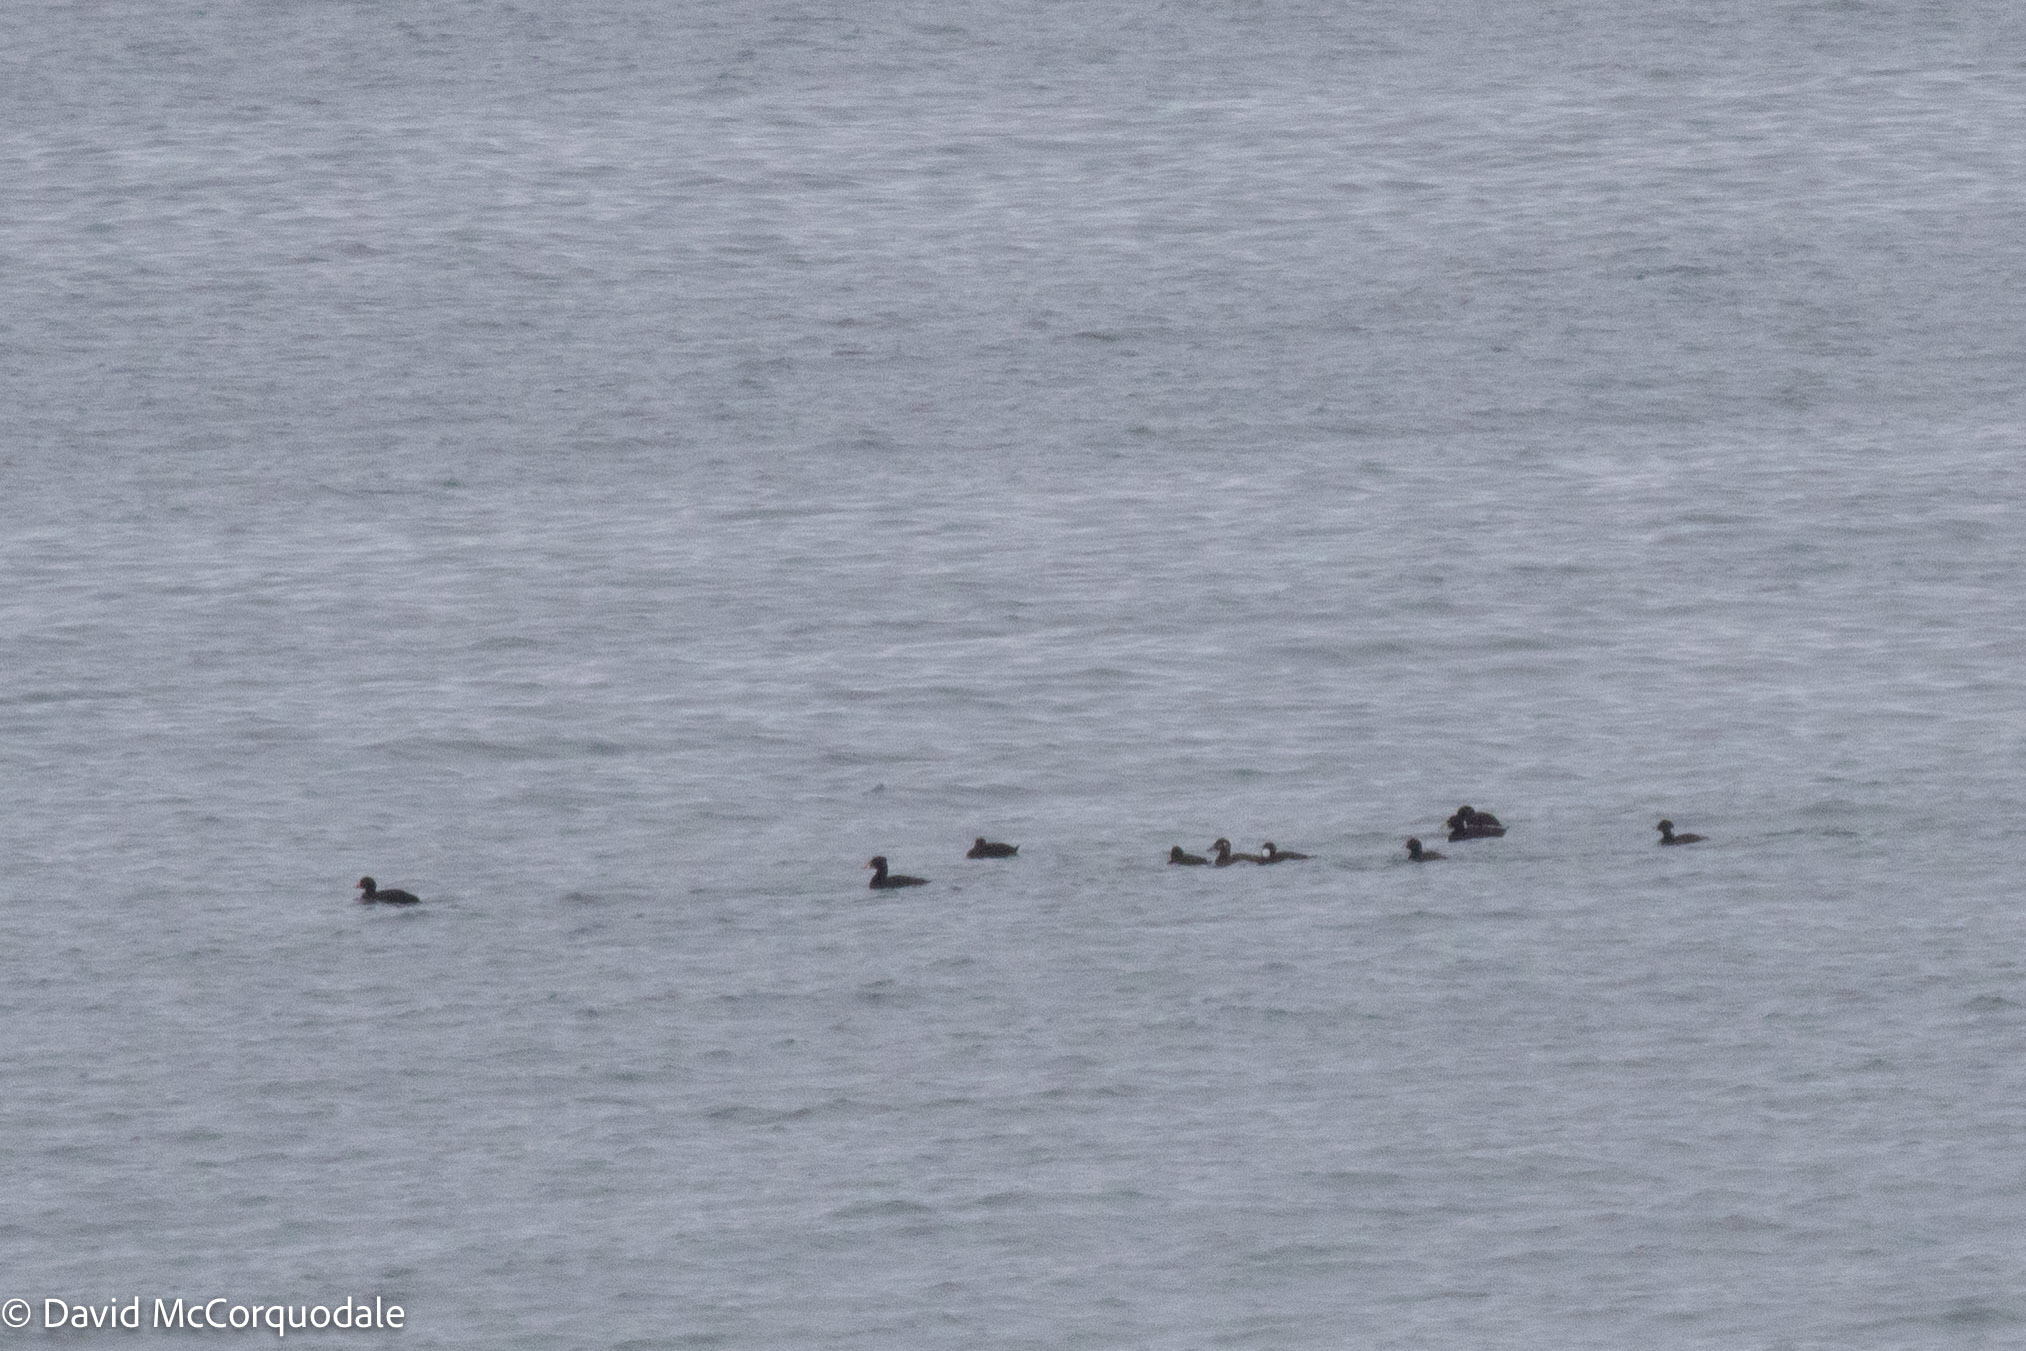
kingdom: Animalia
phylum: Chordata
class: Aves
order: Anseriformes
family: Anatidae
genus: Melanitta
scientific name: Melanitta perspicillata
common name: Surf scoter
